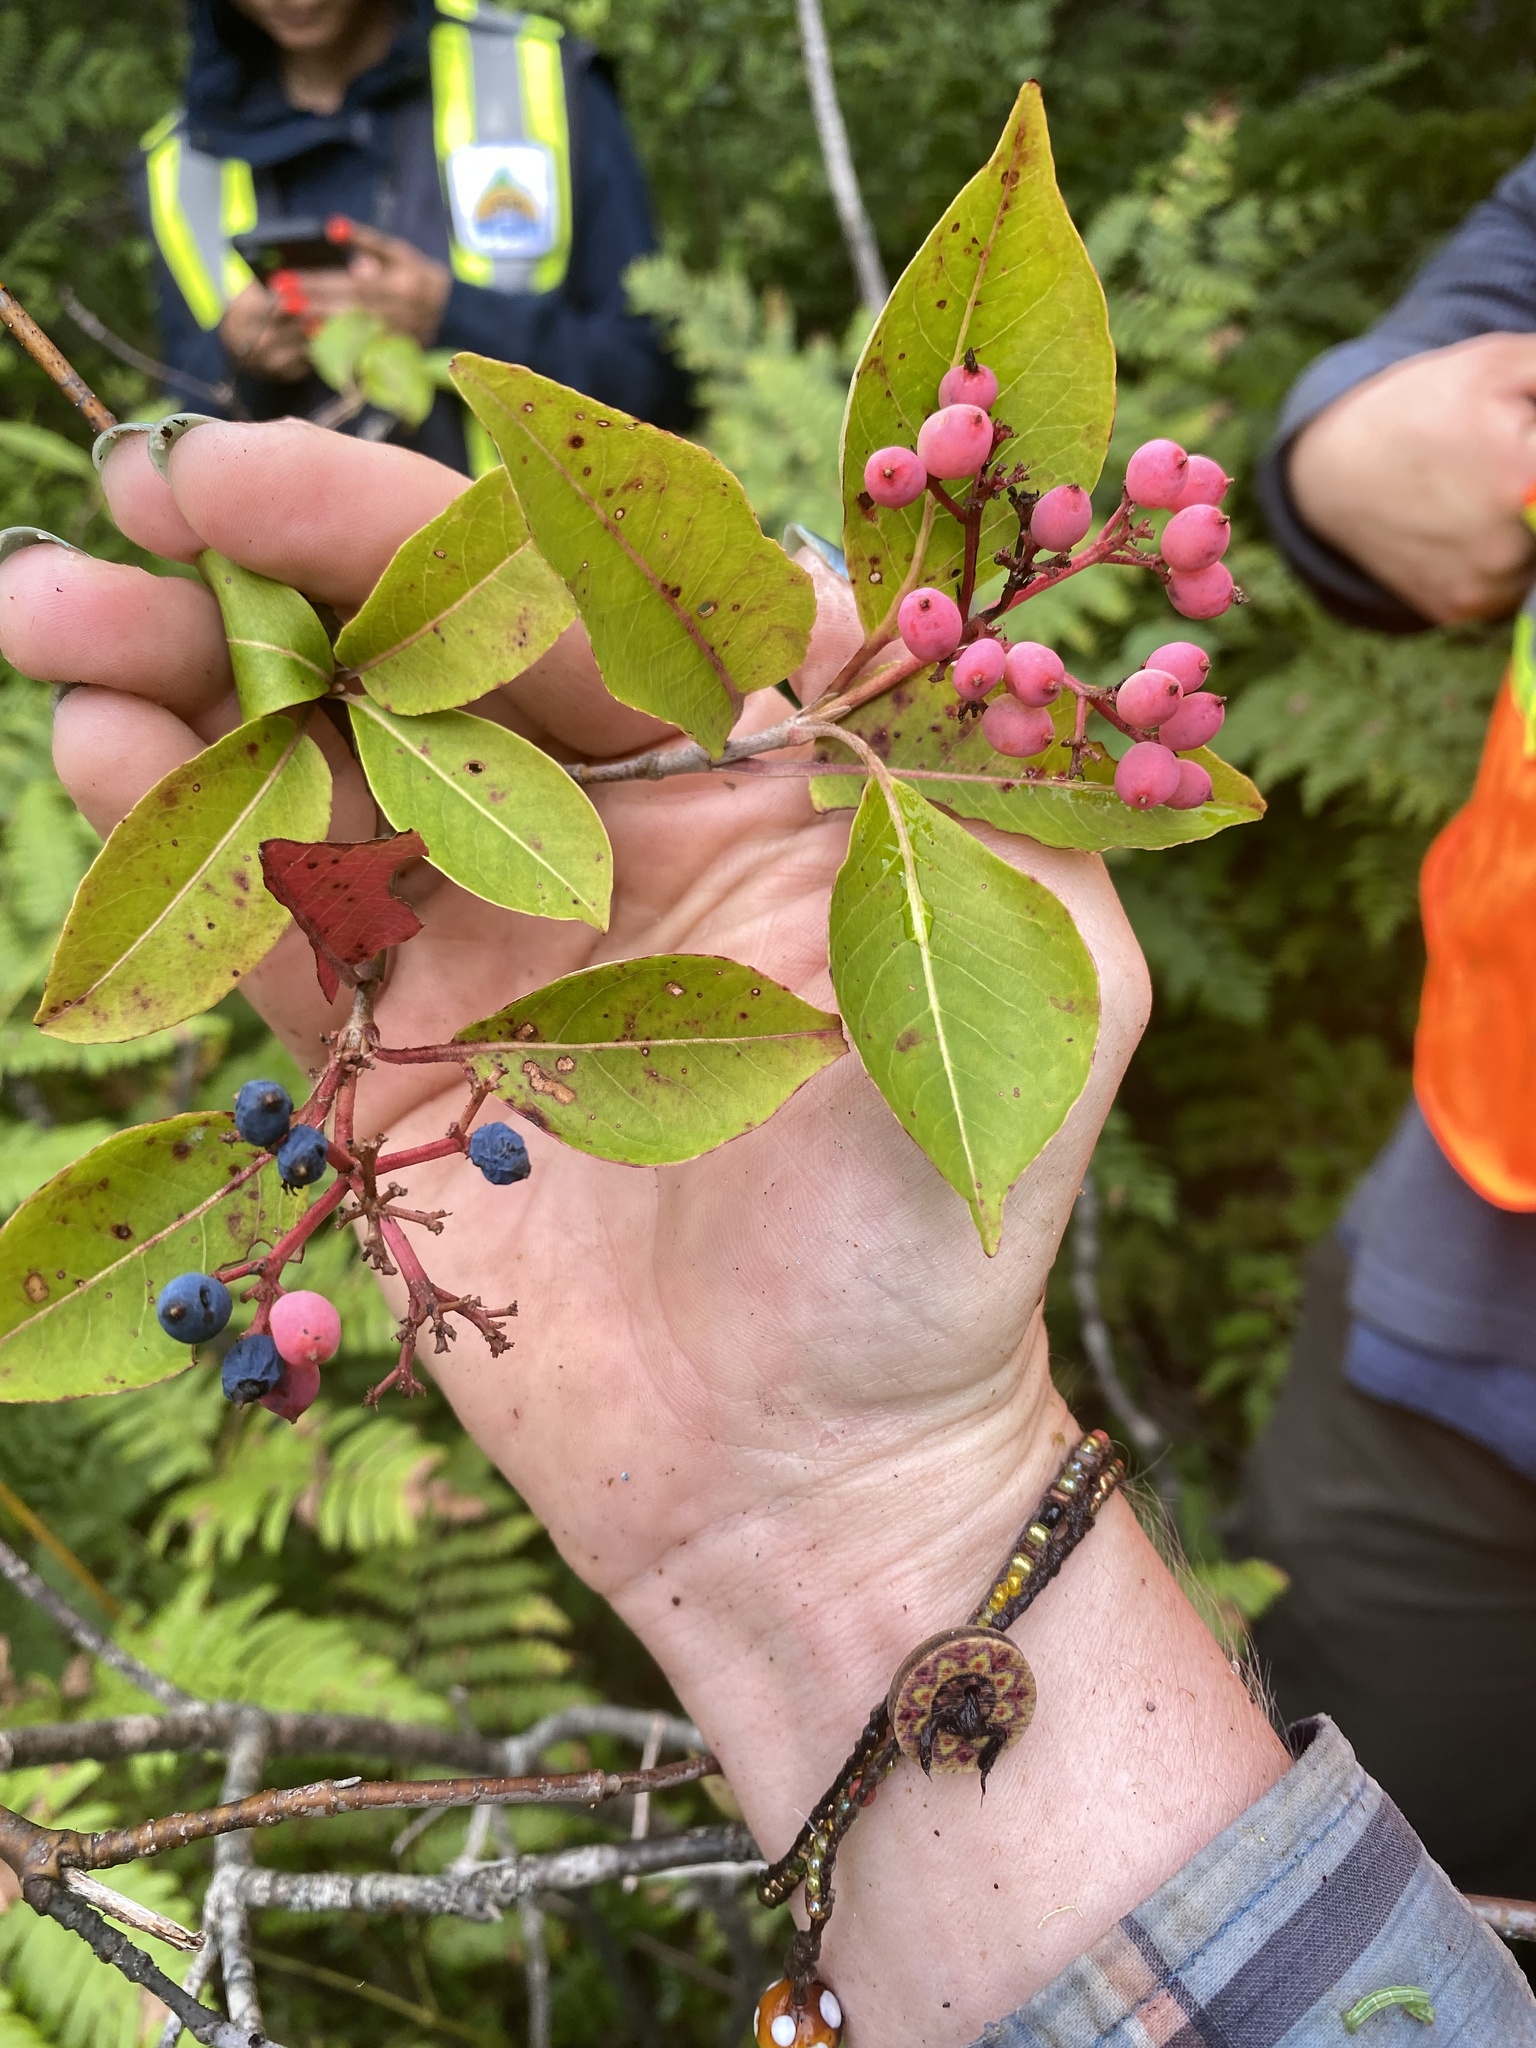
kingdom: Plantae
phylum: Tracheophyta
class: Magnoliopsida
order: Dipsacales
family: Viburnaceae
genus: Viburnum
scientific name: Viburnum cassinoides
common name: Swamp haw
